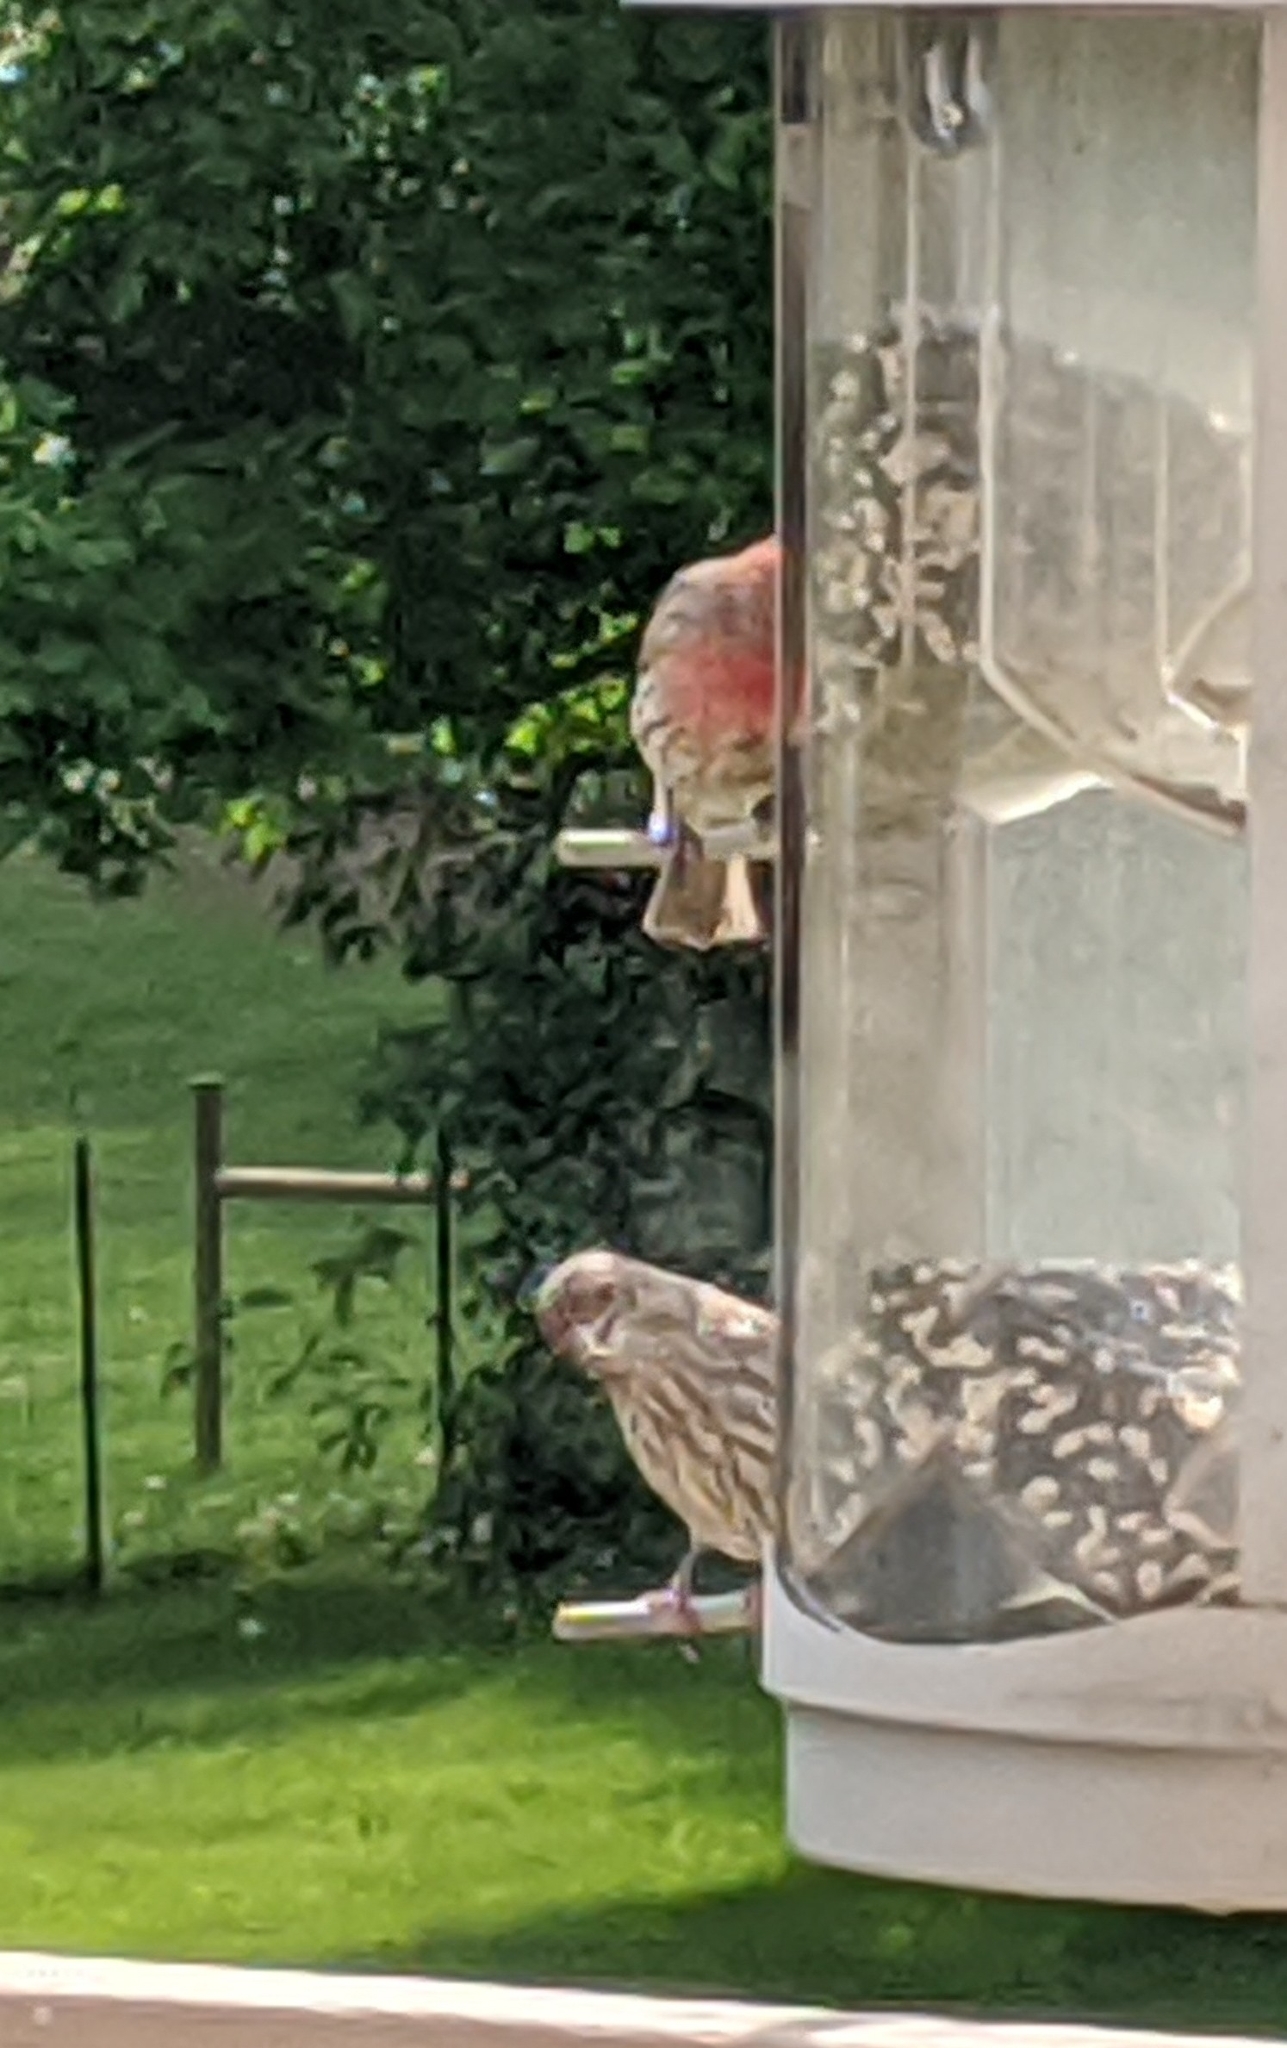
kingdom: Animalia
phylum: Chordata
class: Aves
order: Passeriformes
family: Fringillidae
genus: Haemorhous
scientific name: Haemorhous mexicanus
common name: House finch
